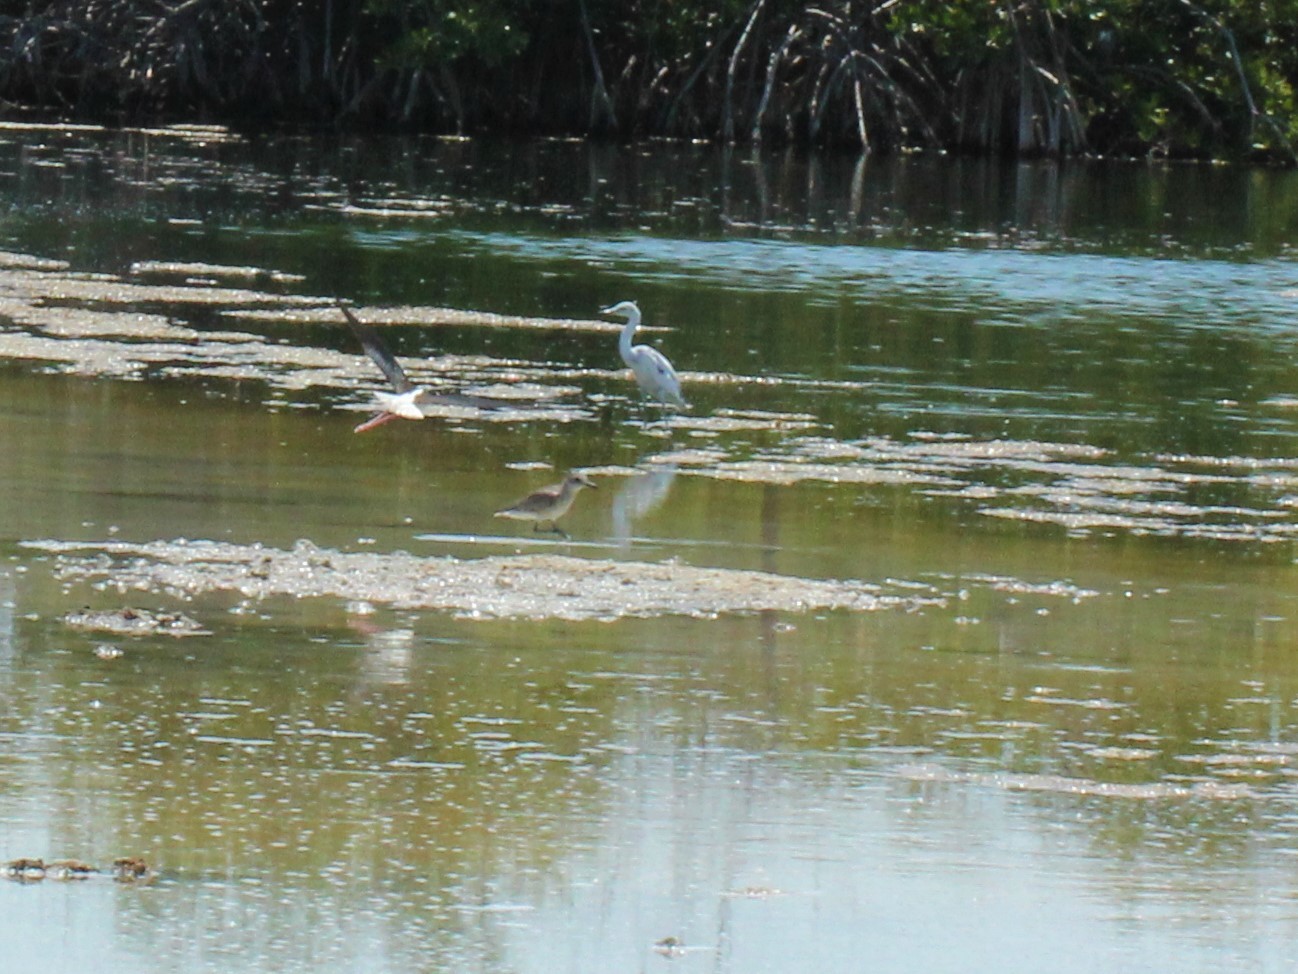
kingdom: Animalia
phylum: Chordata
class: Aves
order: Charadriiformes
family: Charadriidae
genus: Pluvialis
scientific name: Pluvialis squatarola
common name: Grey plover
